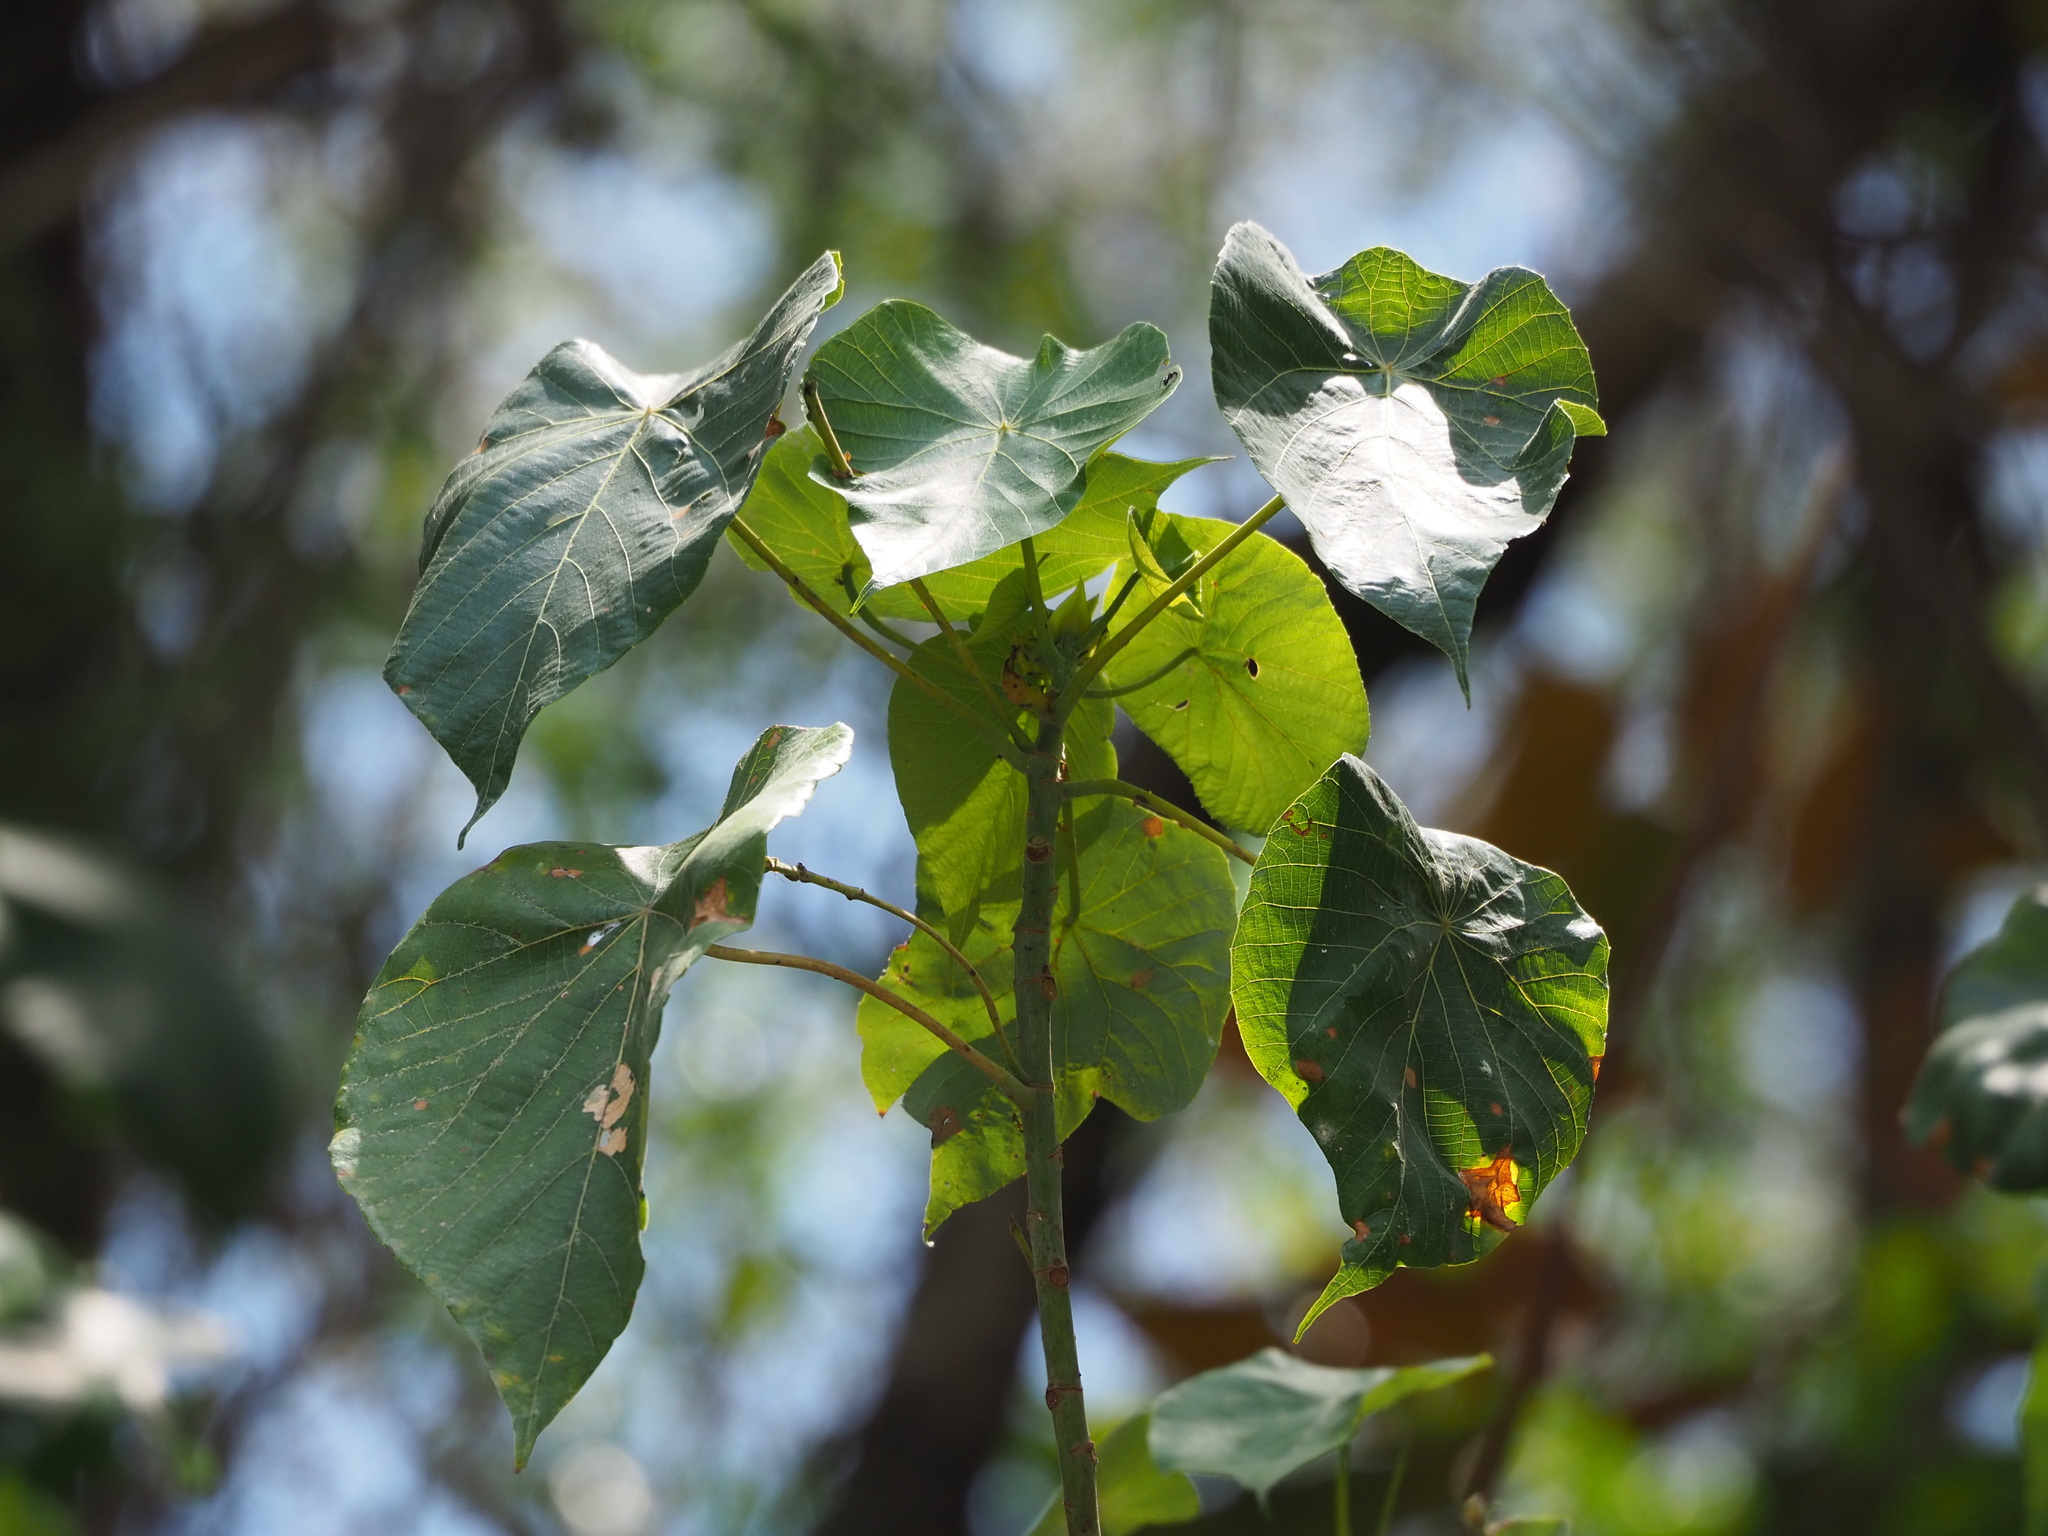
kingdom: Plantae
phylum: Tracheophyta
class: Magnoliopsida
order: Malpighiales
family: Euphorbiaceae
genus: Macaranga
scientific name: Macaranga tanarius
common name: Parasol leaf tree
